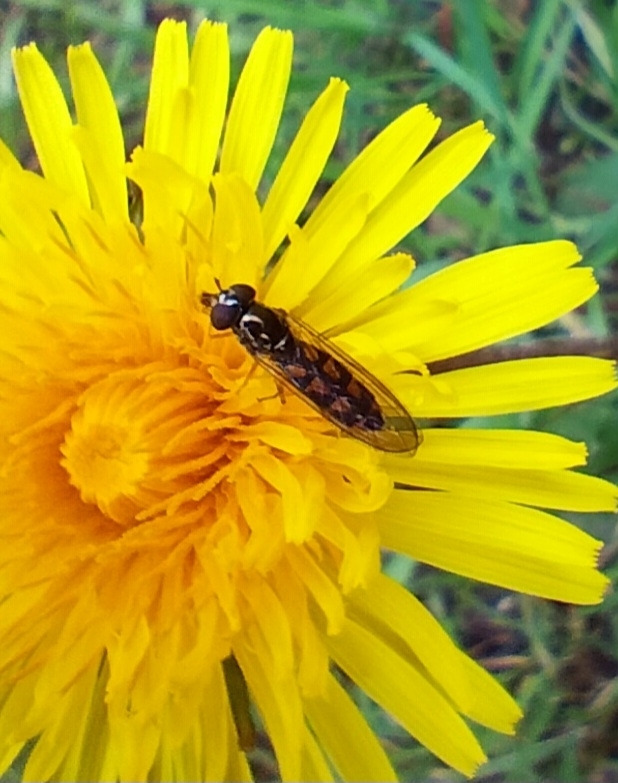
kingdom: Animalia
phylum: Arthropoda
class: Insecta
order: Diptera
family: Syrphidae
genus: Melanostoma
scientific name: Melanostoma scalare
